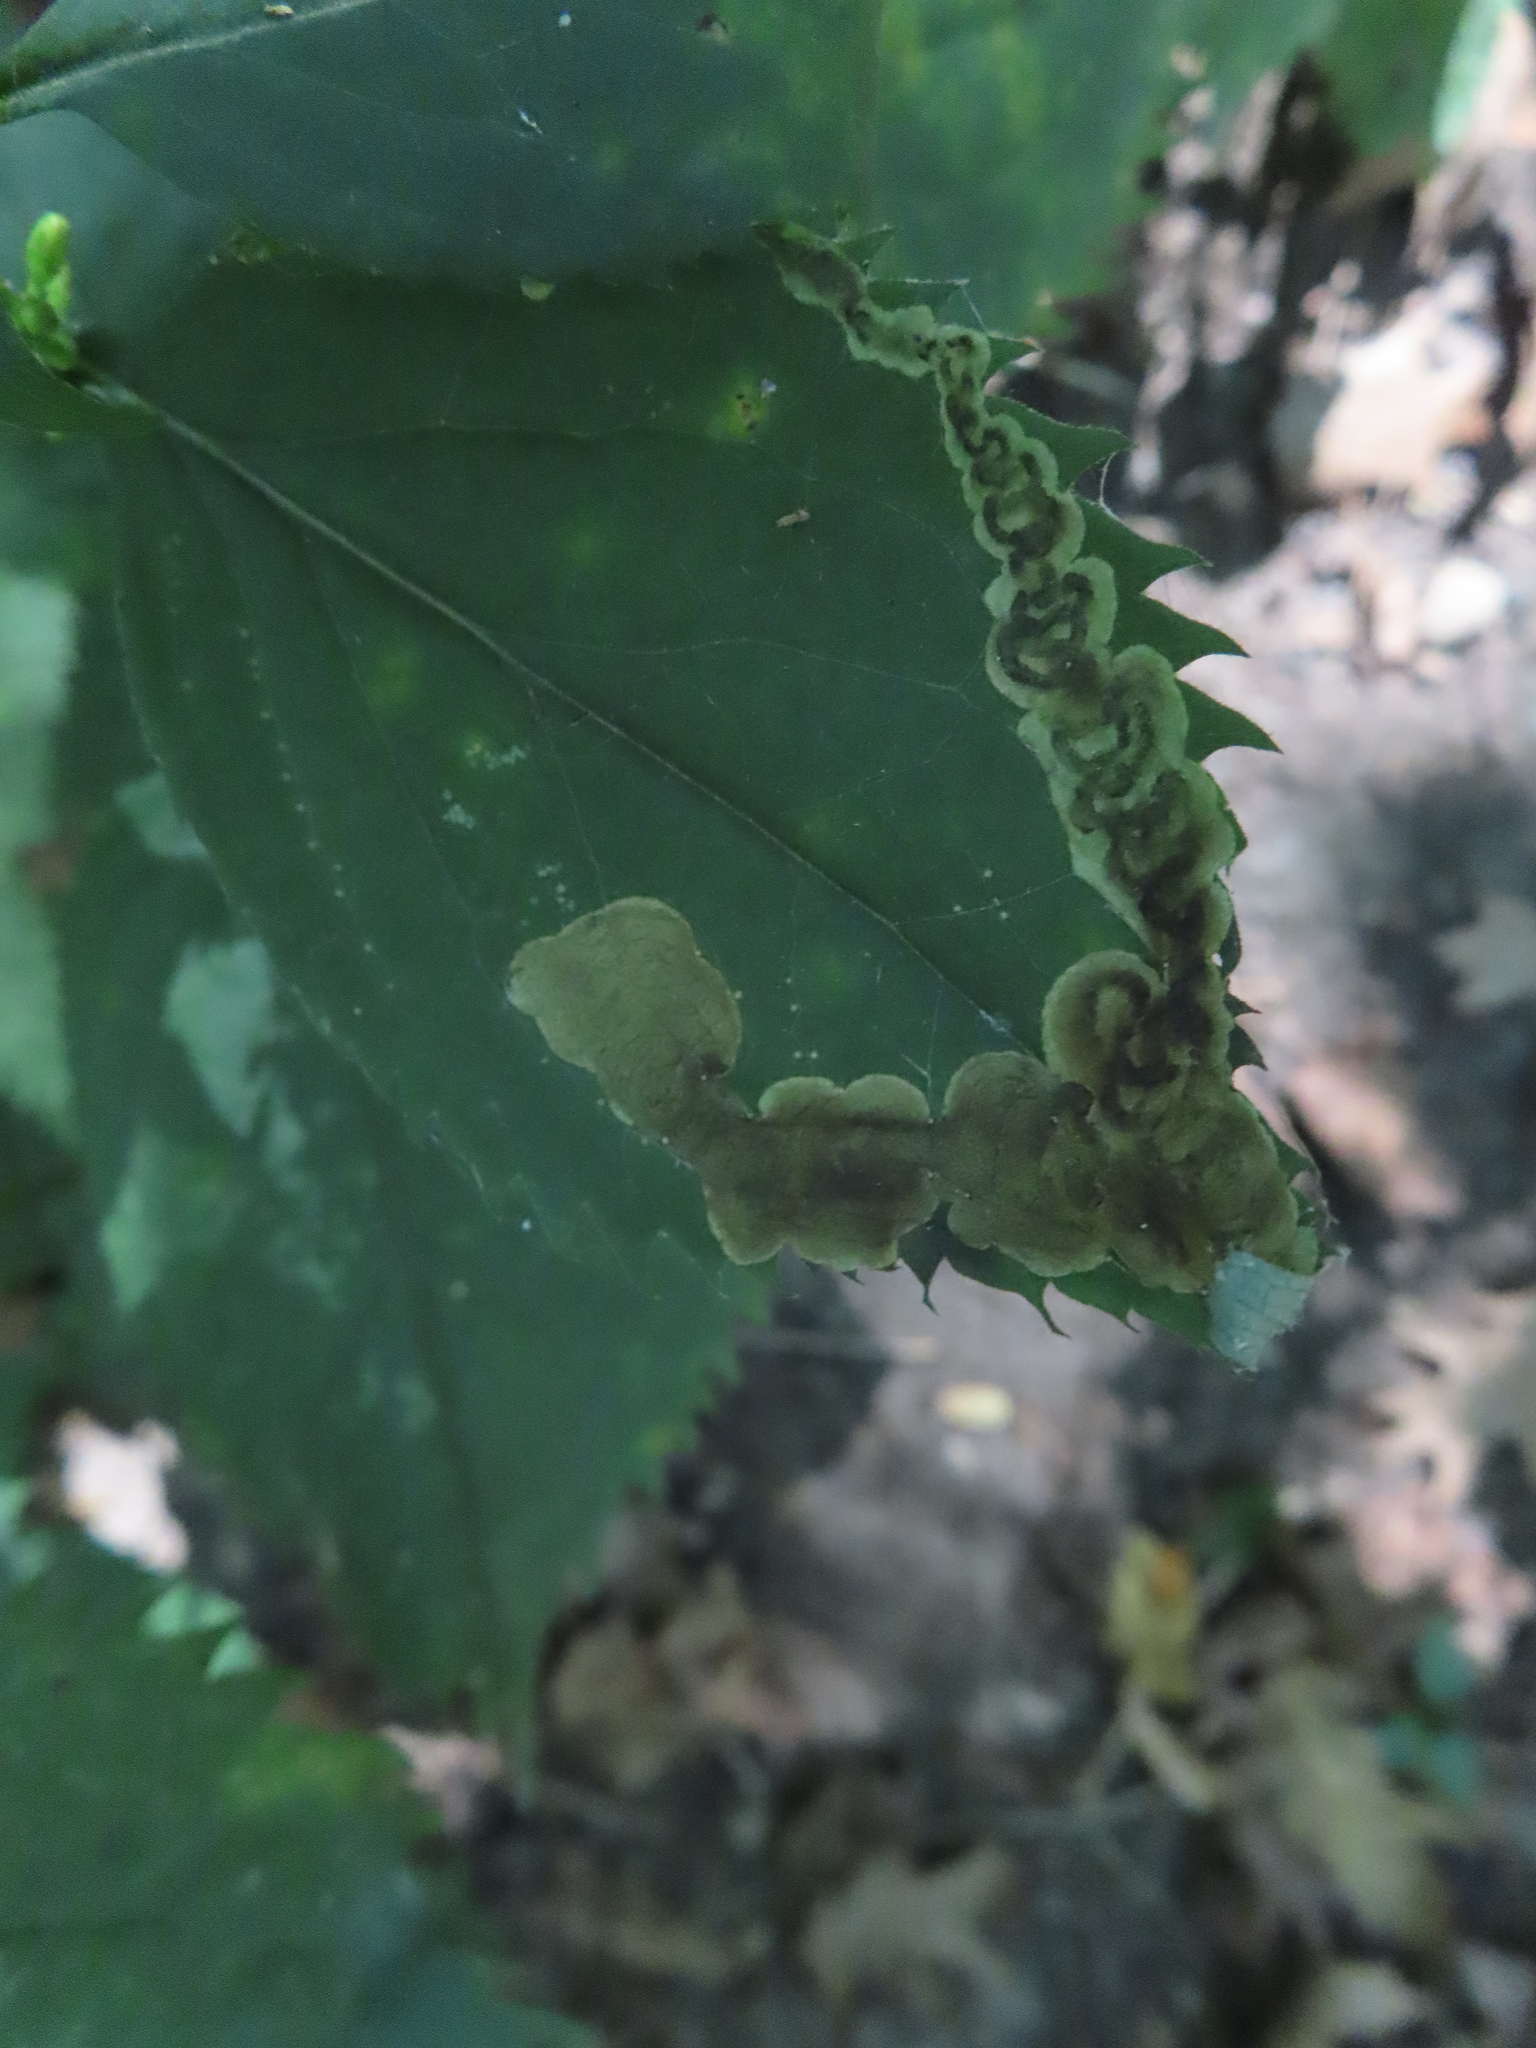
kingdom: Animalia
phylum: Arthropoda
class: Insecta
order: Diptera
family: Agromyzidae
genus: Nemorimyza
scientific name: Nemorimyza posticata
